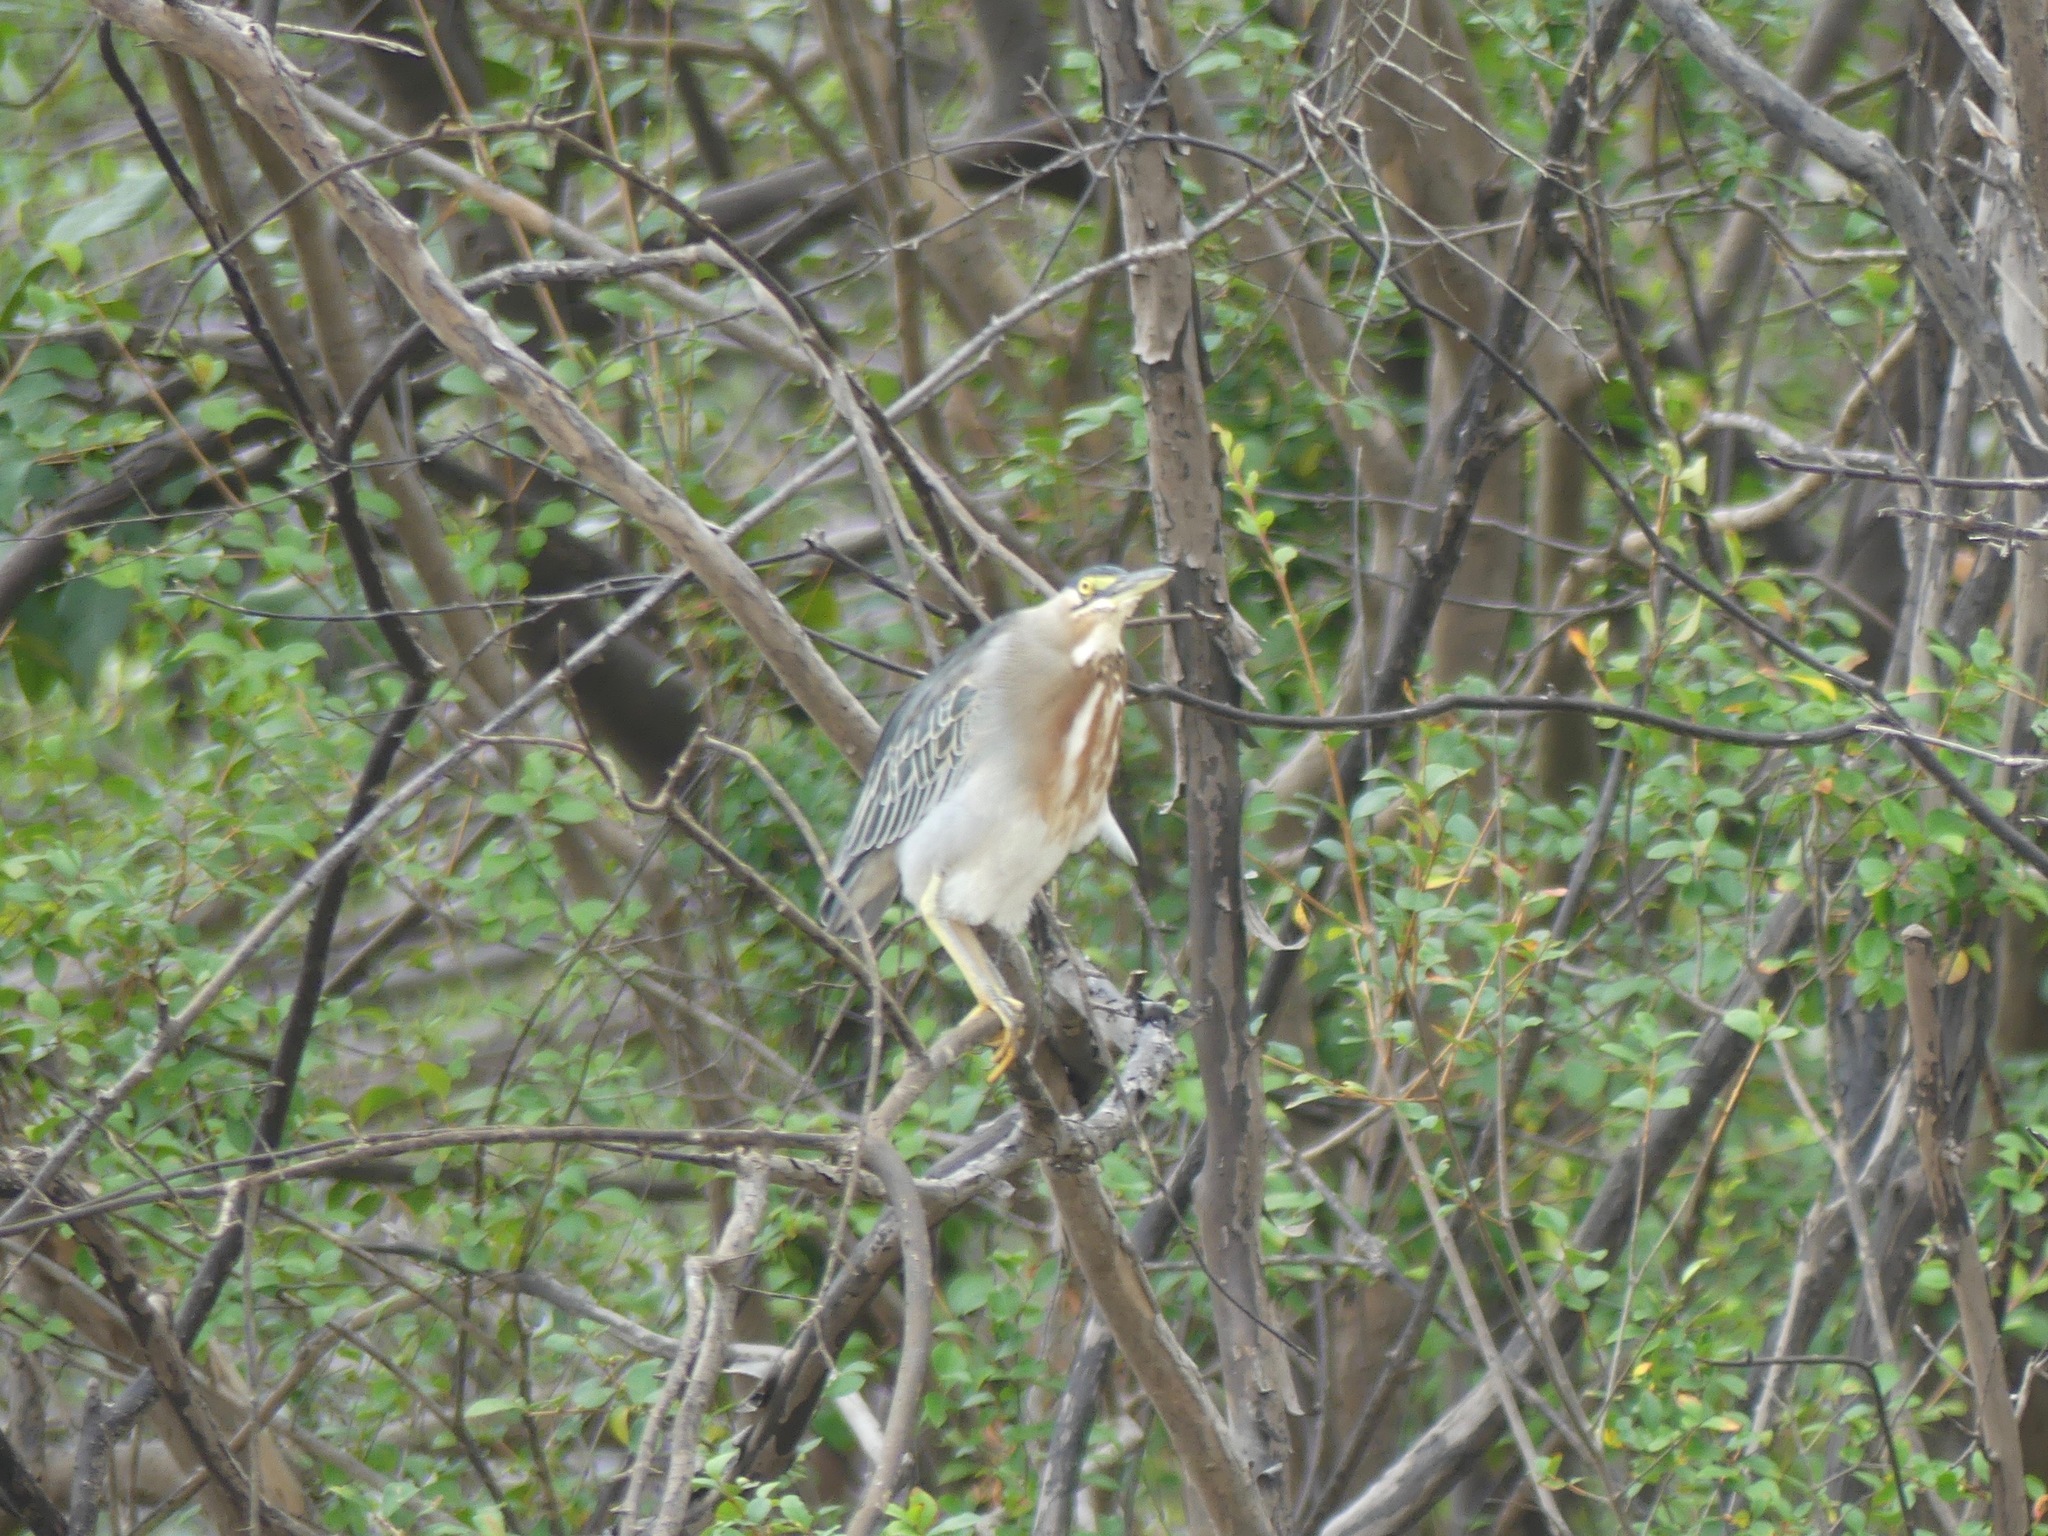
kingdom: Animalia
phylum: Chordata
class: Aves
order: Pelecaniformes
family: Ardeidae
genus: Butorides
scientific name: Butorides striata
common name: Striated heron
